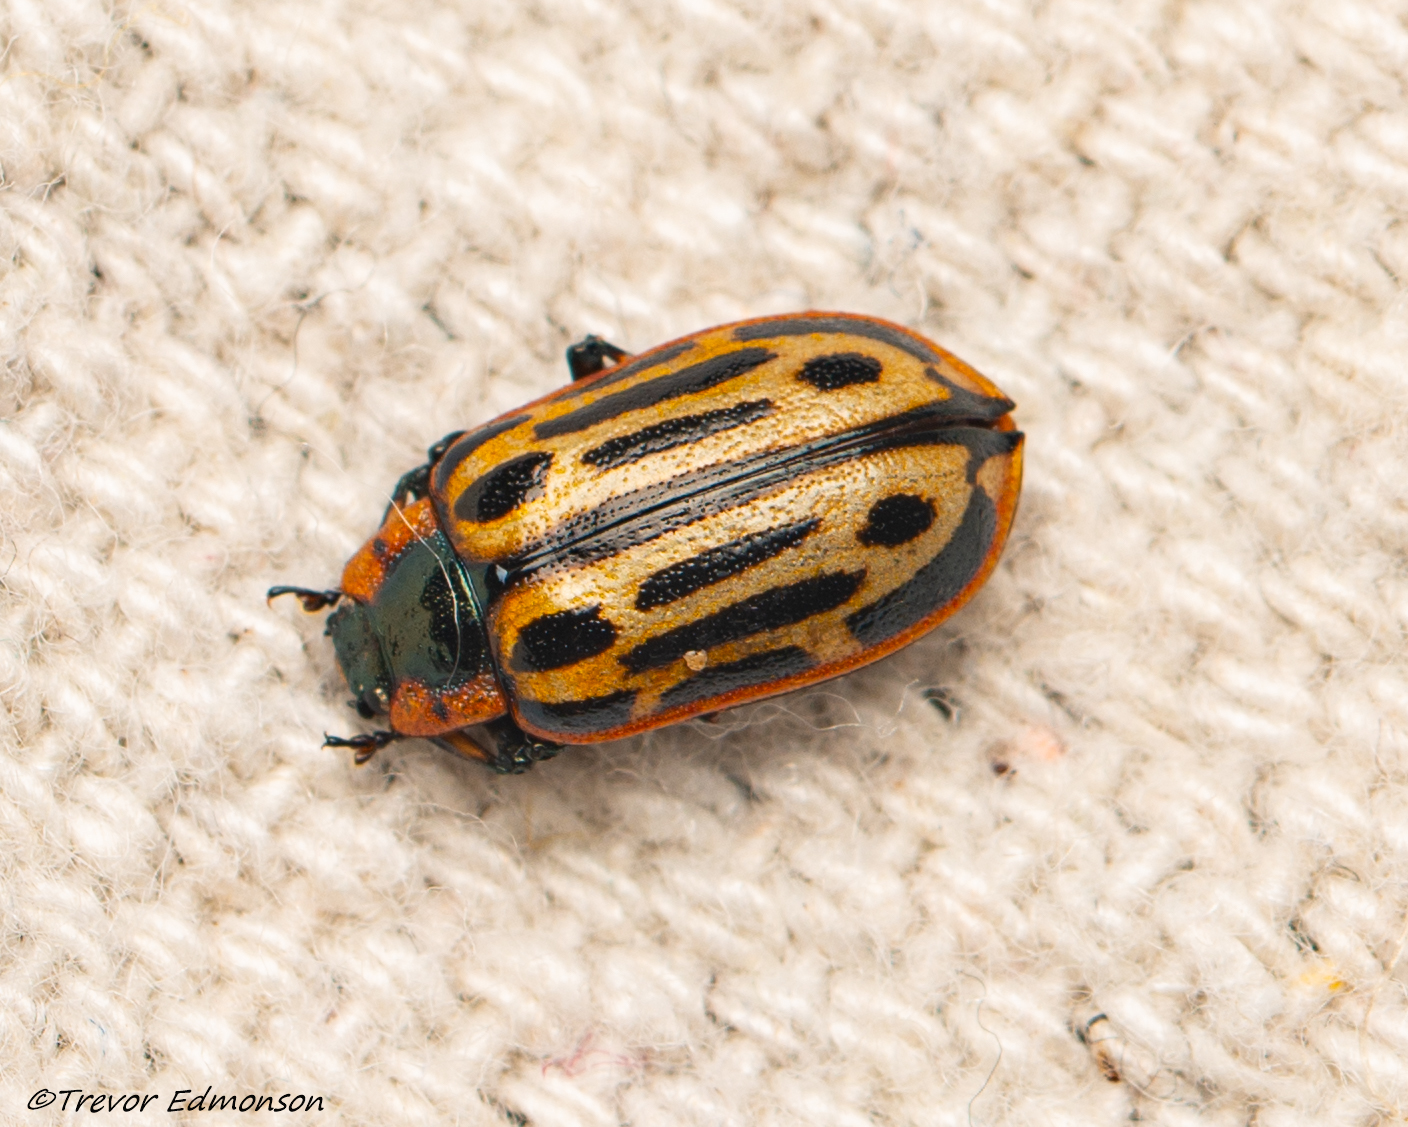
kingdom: Animalia
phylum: Arthropoda
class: Insecta
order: Coleoptera
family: Chrysomelidae
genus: Aethiopocassis
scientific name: Aethiopocassis scripta
